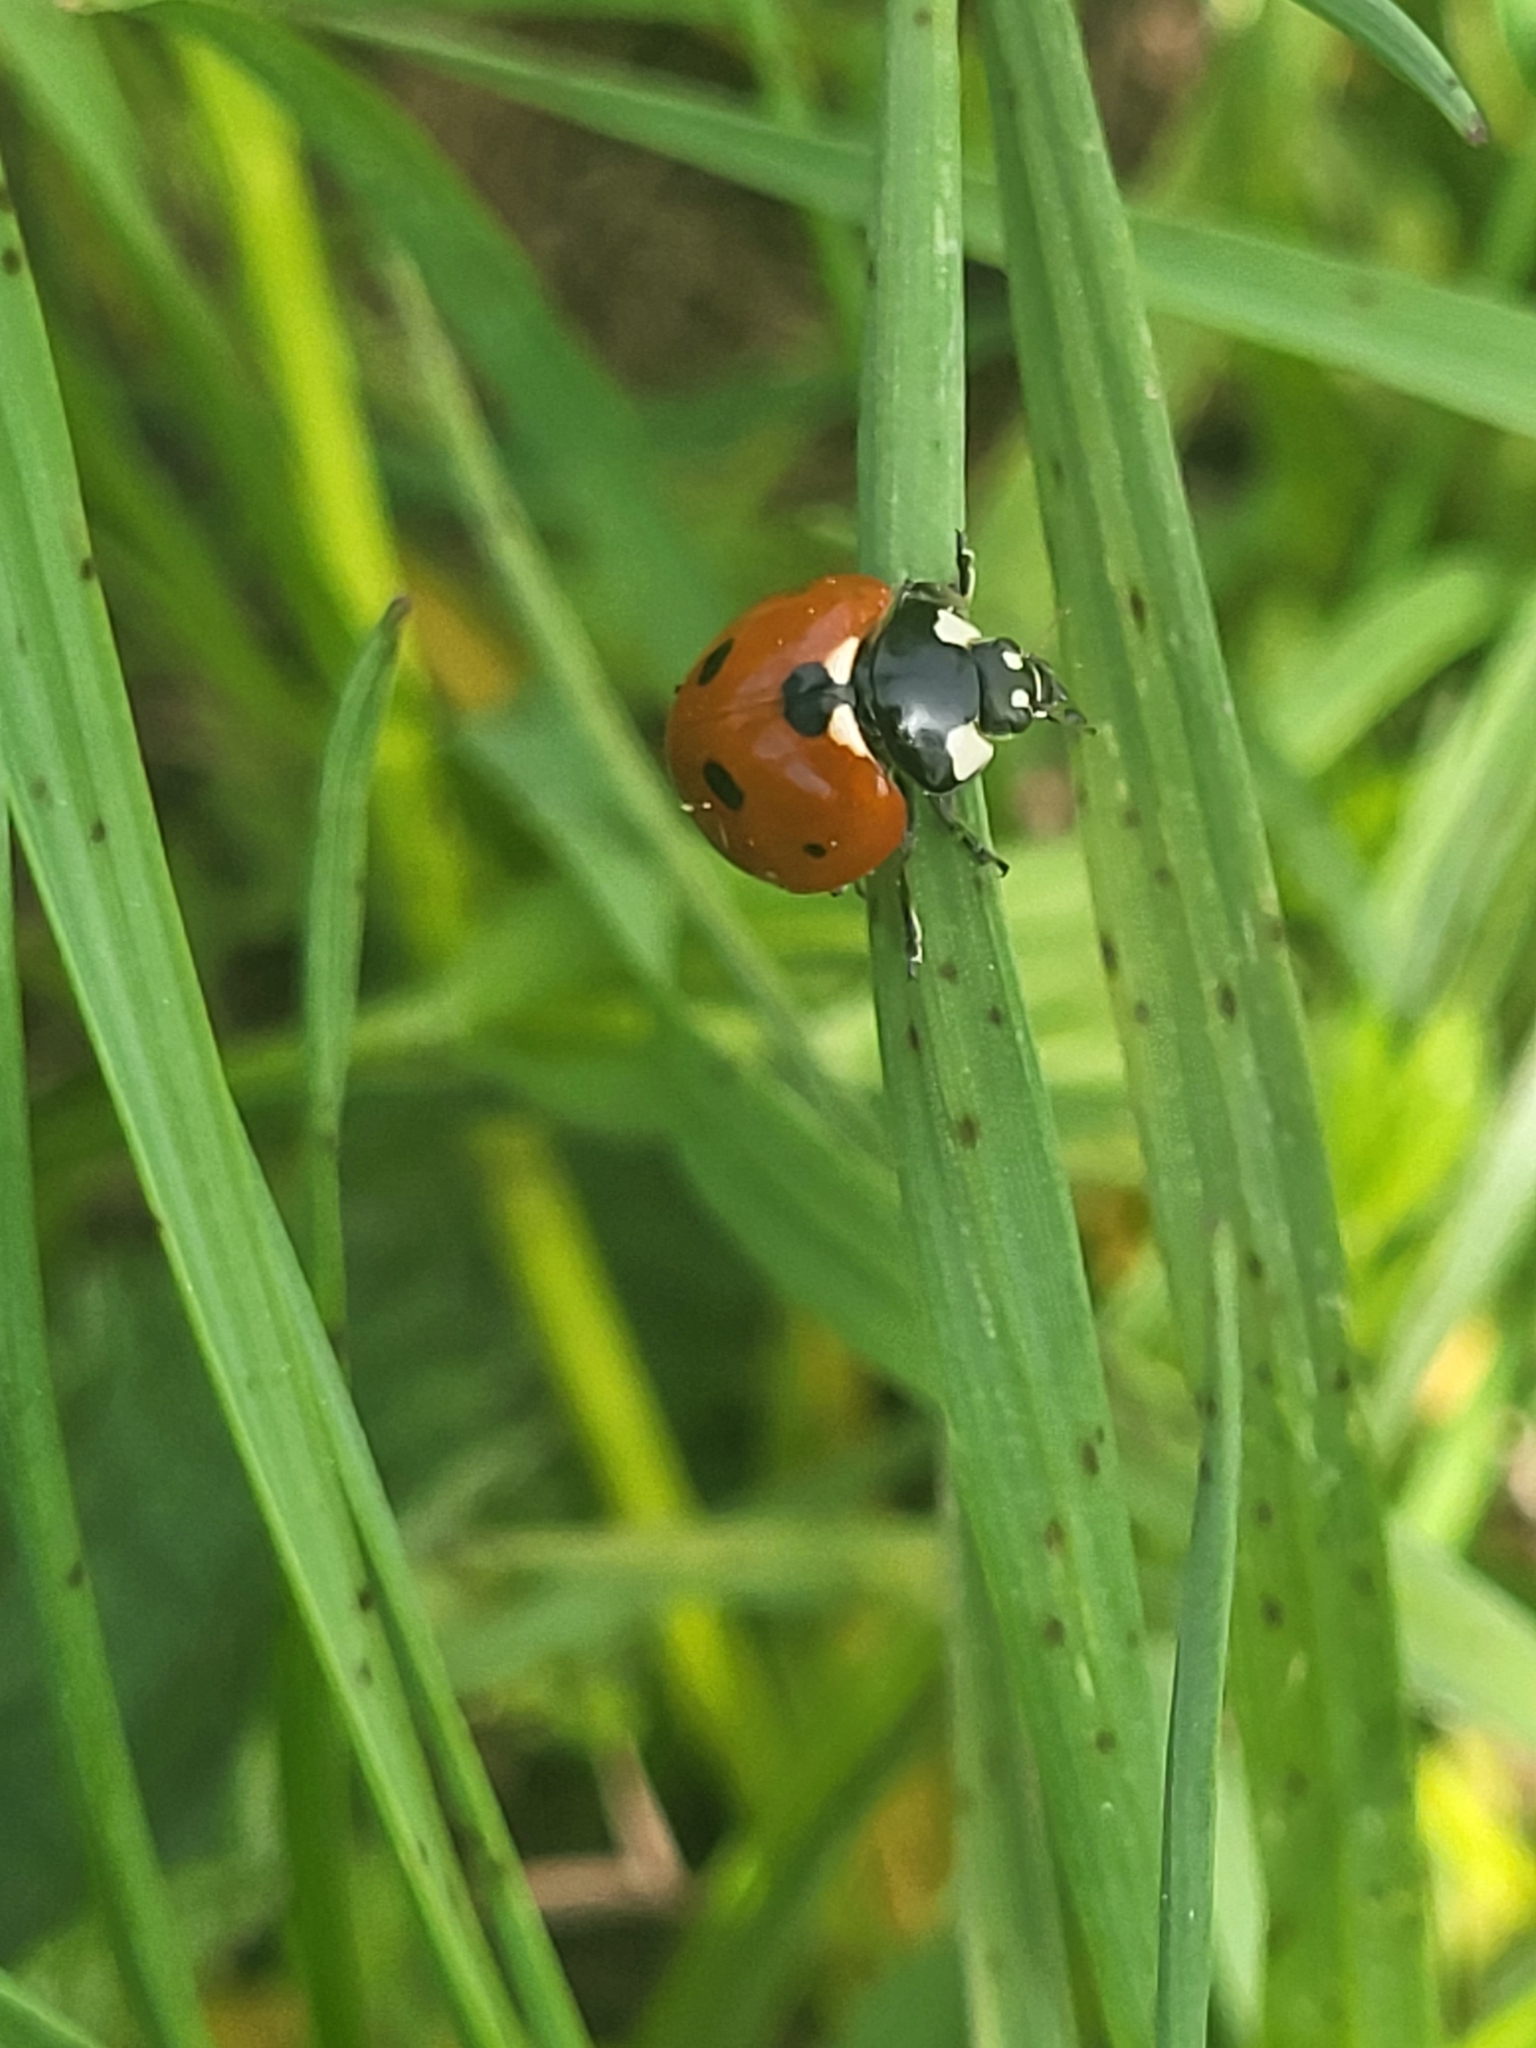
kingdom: Animalia
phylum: Arthropoda
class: Insecta
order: Coleoptera
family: Coccinellidae
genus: Coccinella
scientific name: Coccinella septempunctata
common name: Sevenspotted lady beetle
